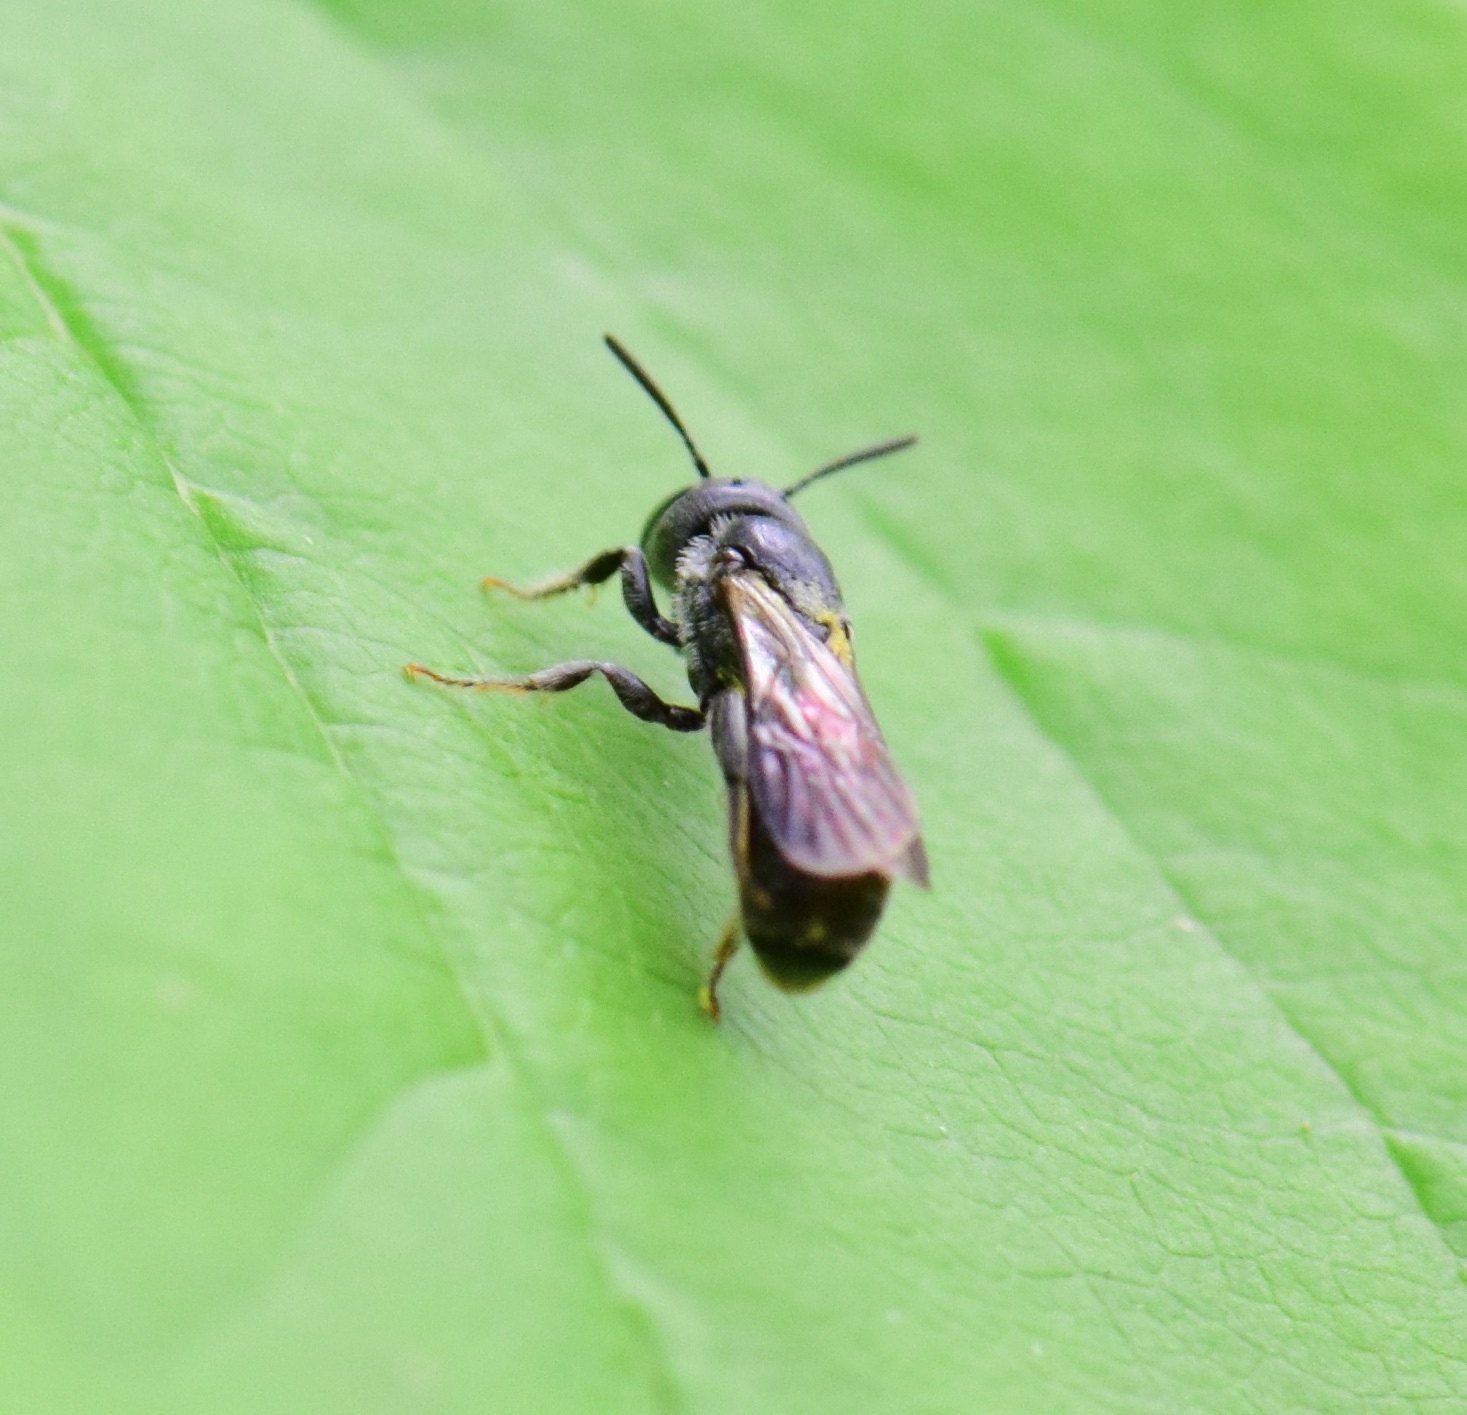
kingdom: Animalia
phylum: Arthropoda
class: Insecta
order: Hymenoptera
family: Megachilidae
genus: Chelostoma
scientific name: Chelostoma philadelphi
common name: Mock-orange scissor bee
